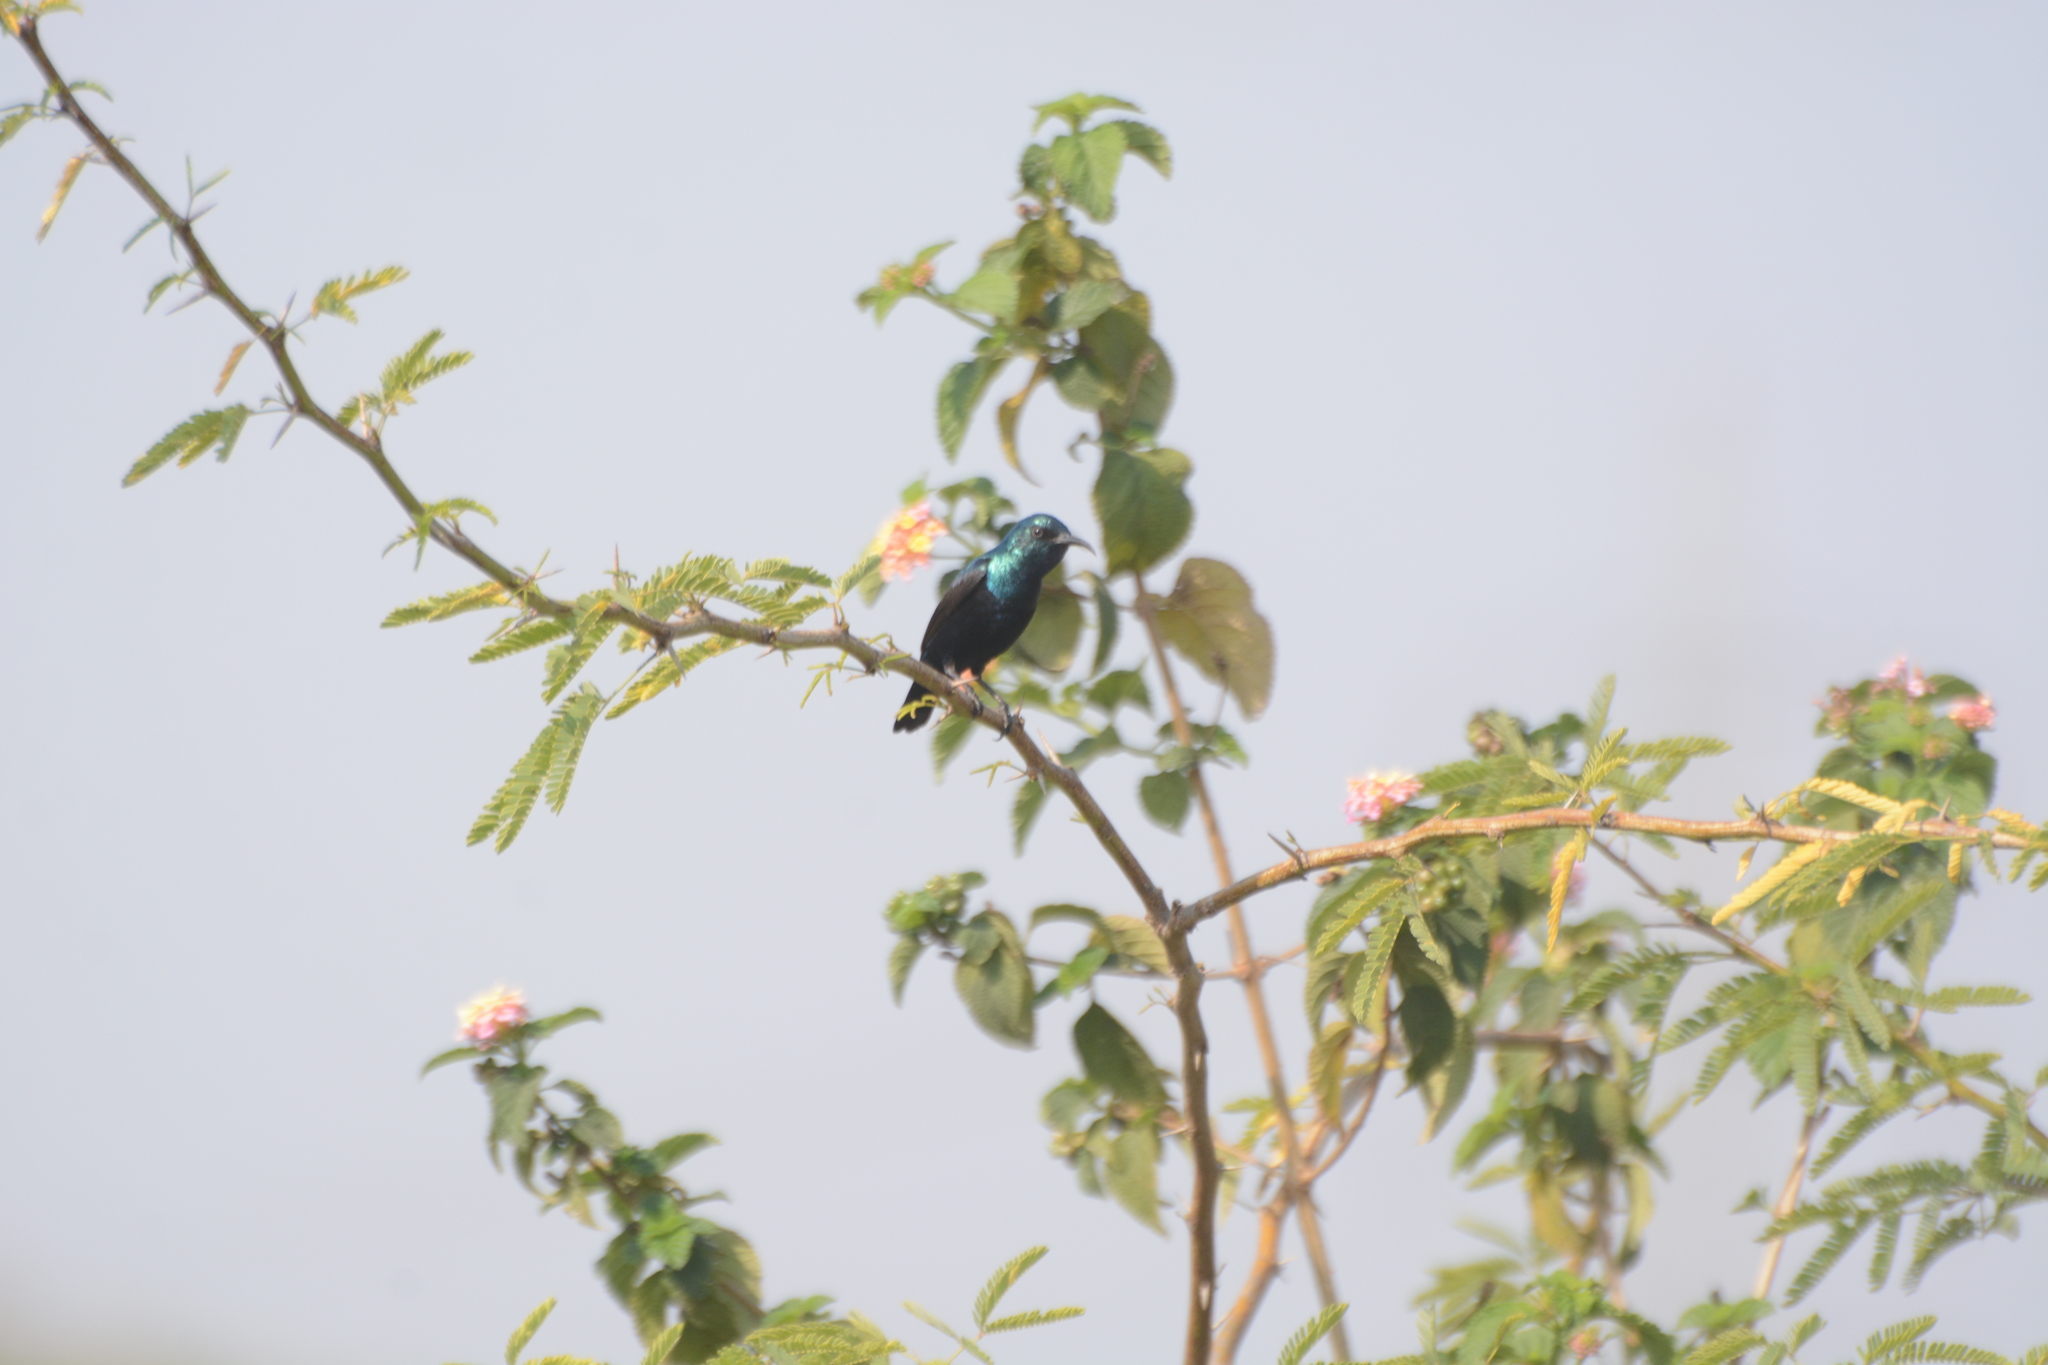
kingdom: Animalia
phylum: Chordata
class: Aves
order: Passeriformes
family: Nectariniidae
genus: Cinnyris
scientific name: Cinnyris asiaticus
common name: Purple sunbird
